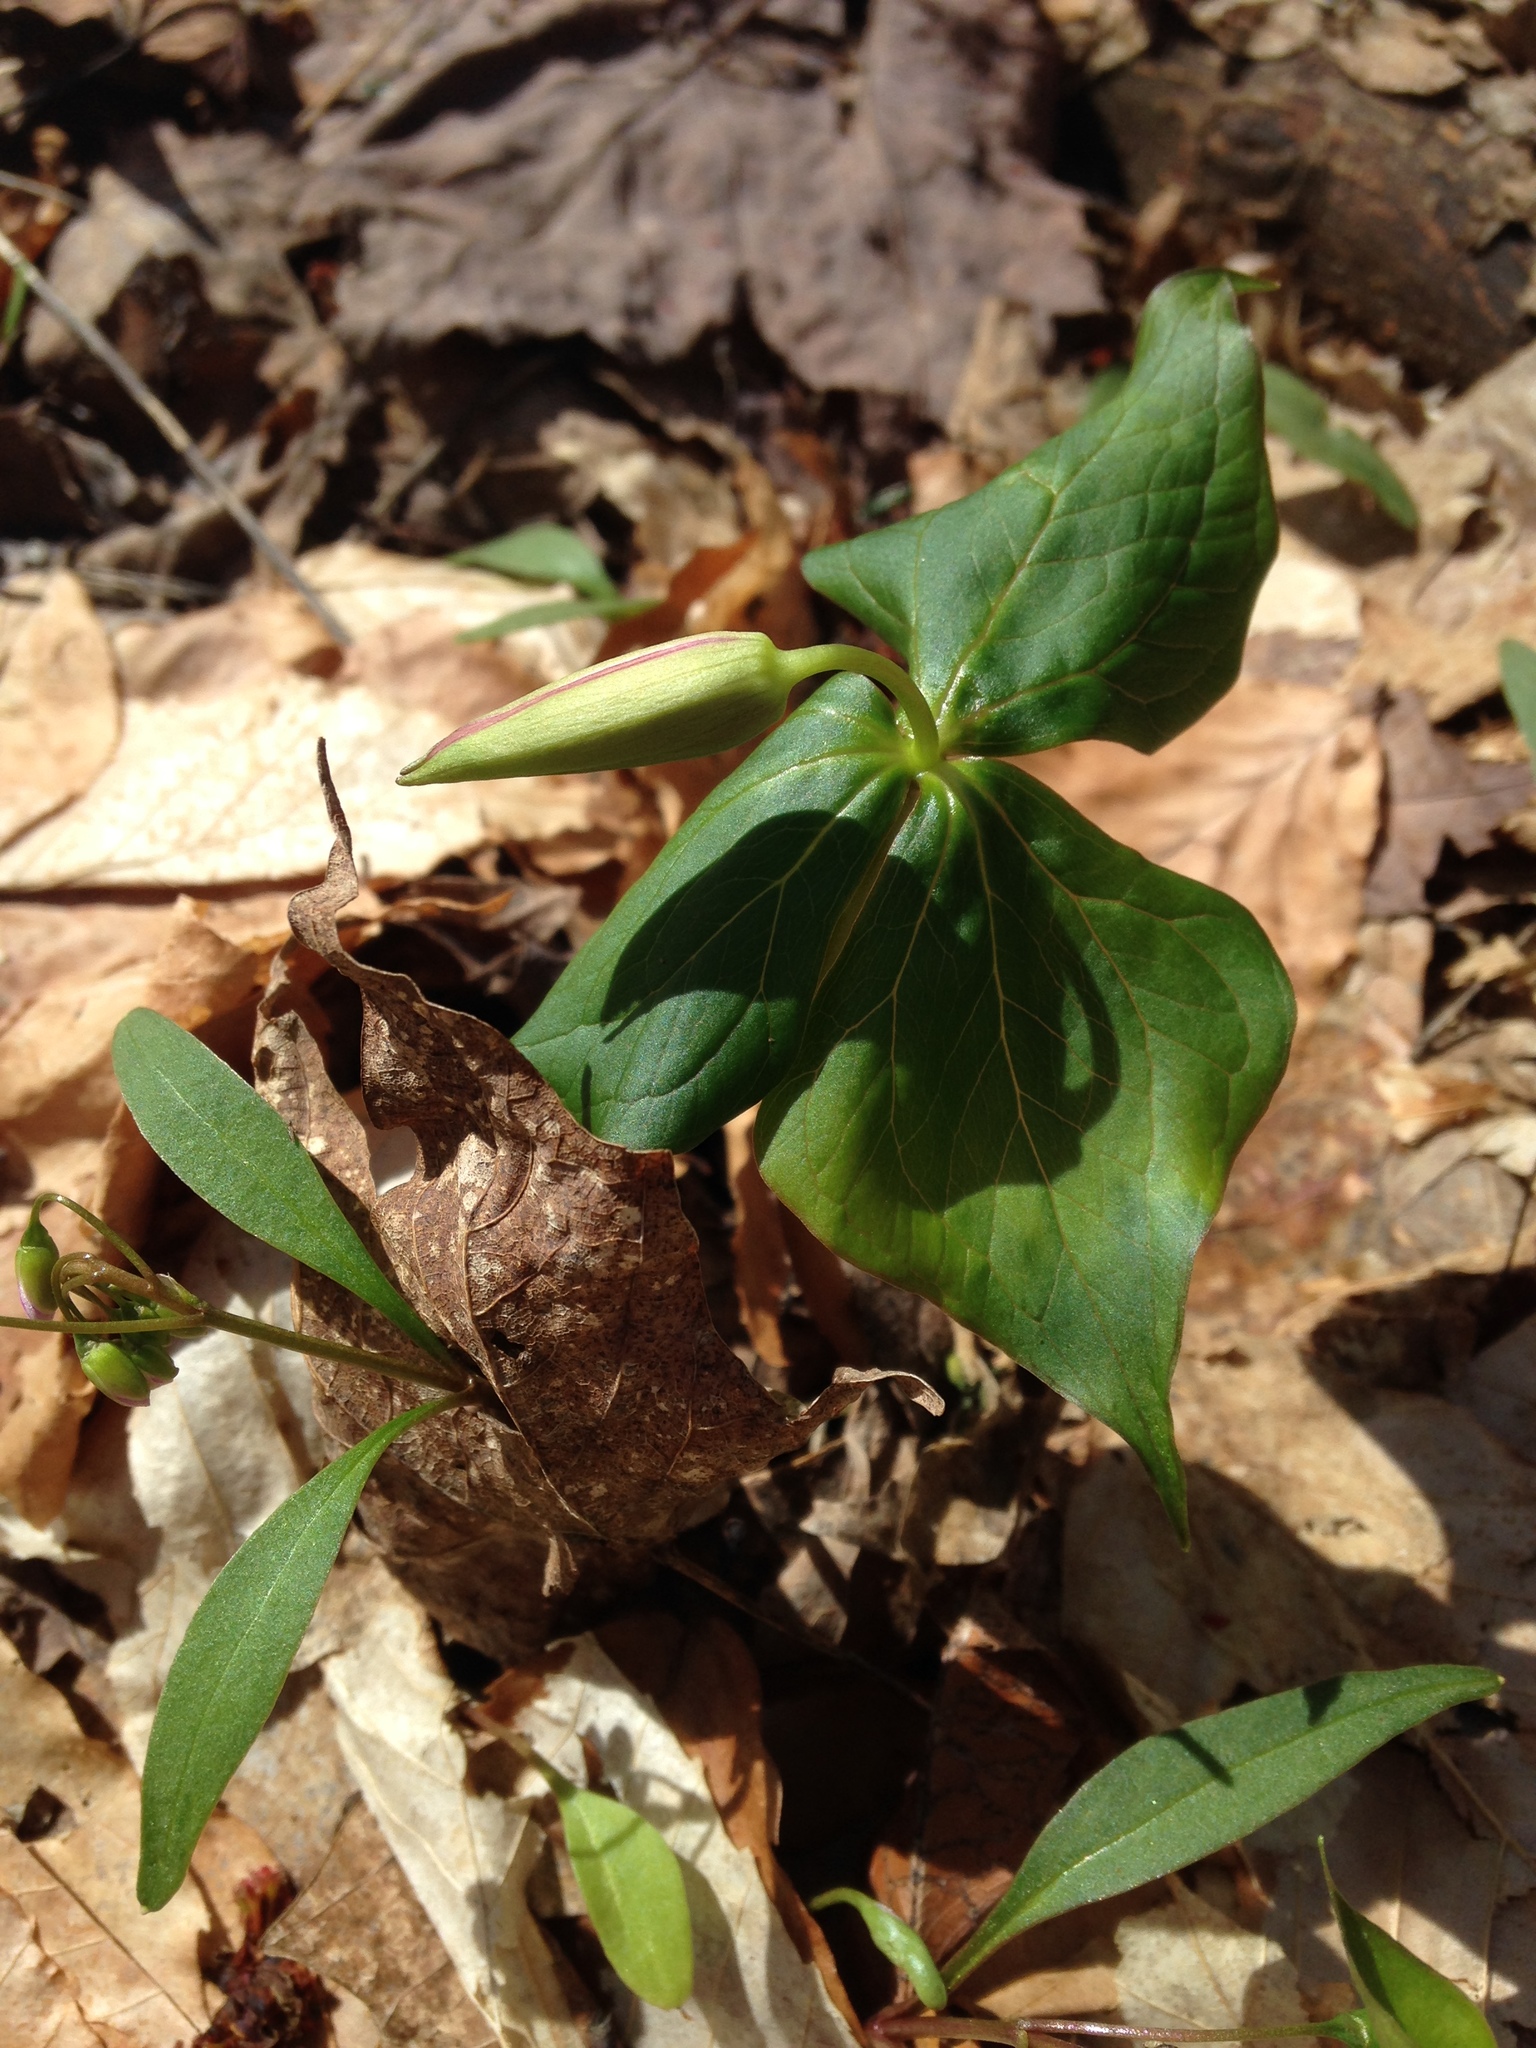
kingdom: Plantae
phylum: Tracheophyta
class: Liliopsida
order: Liliales
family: Melanthiaceae
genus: Trillium
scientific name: Trillium erectum
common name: Purple trillium
